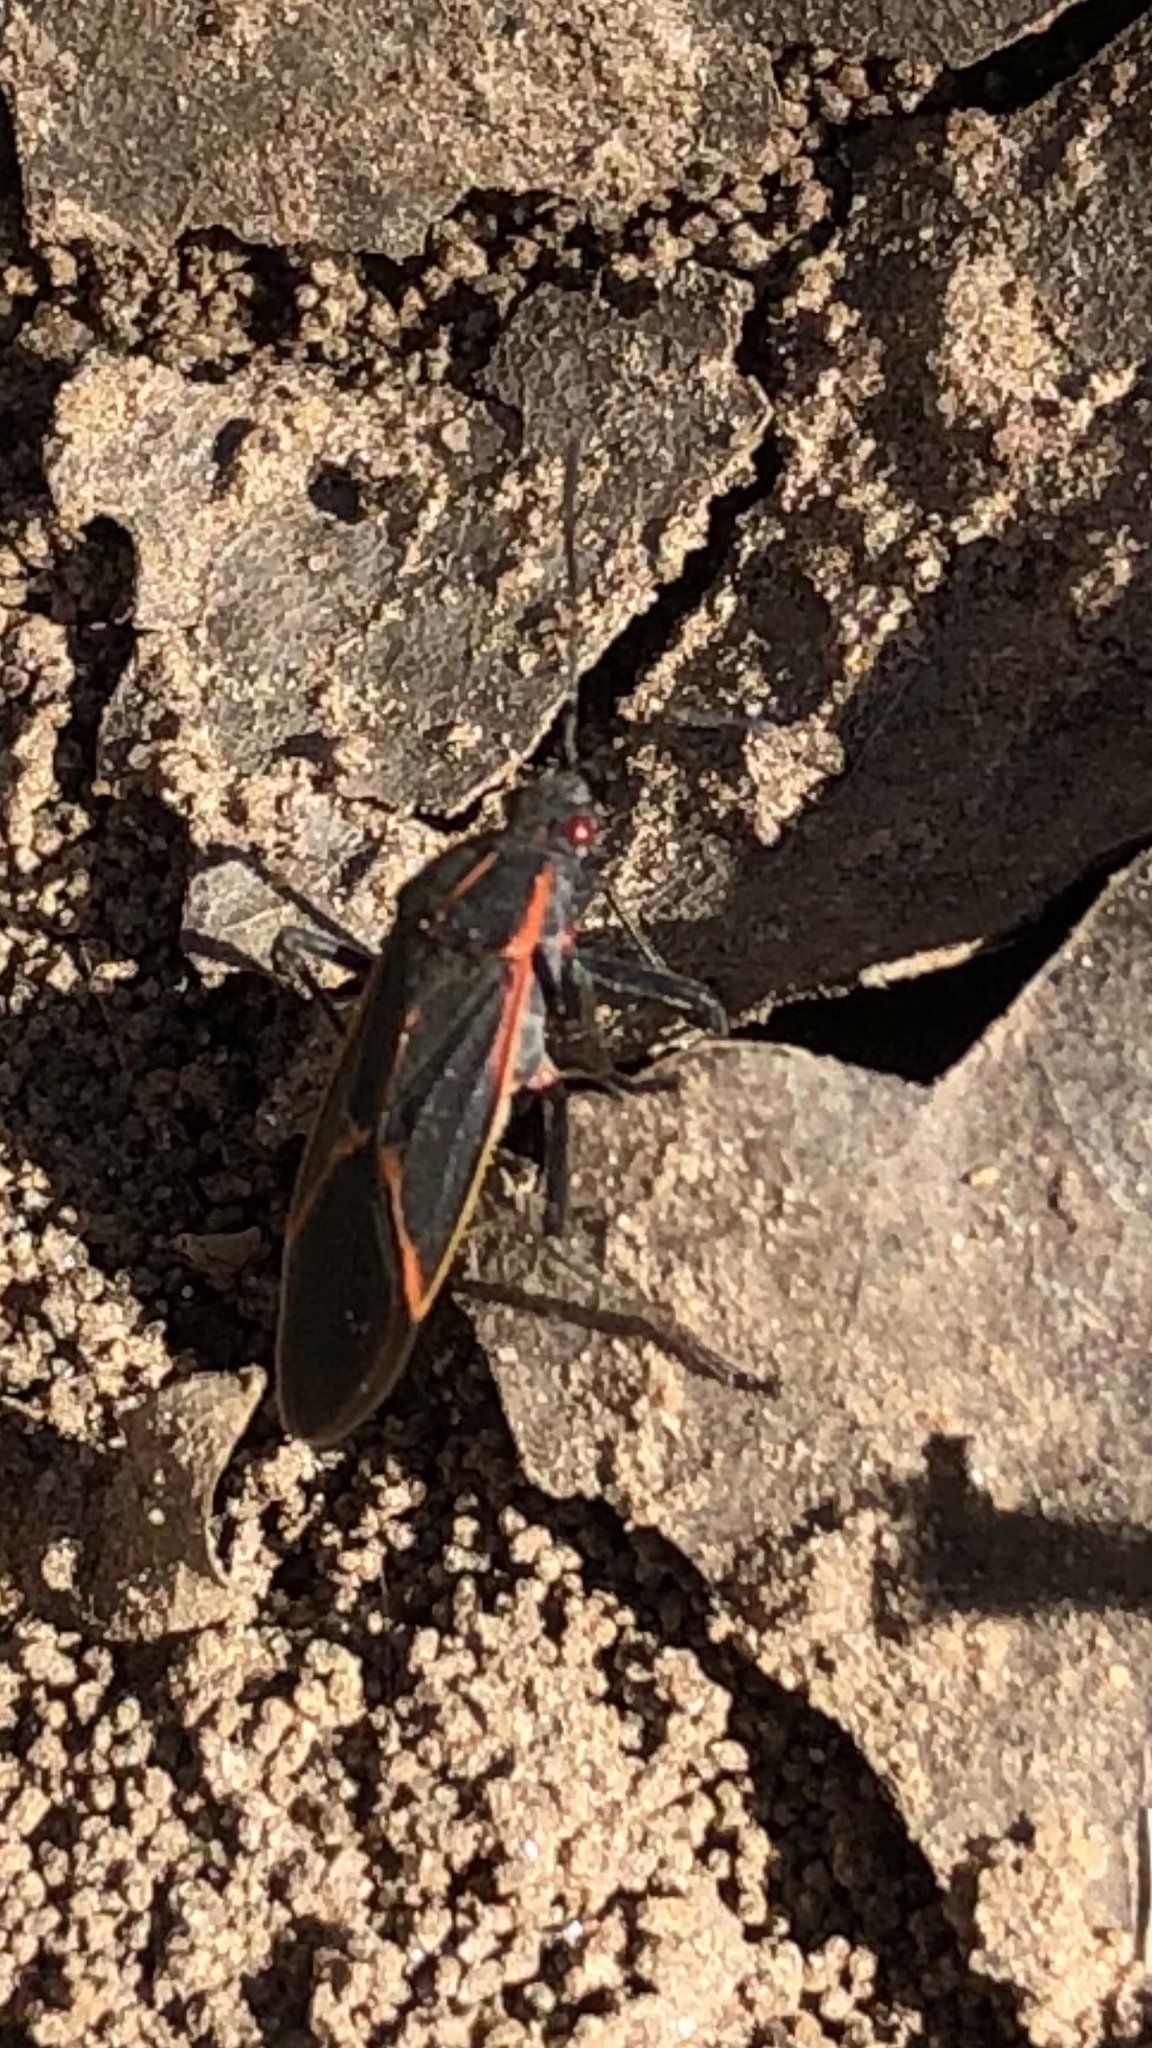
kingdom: Animalia
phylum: Arthropoda
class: Insecta
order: Hemiptera
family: Rhopalidae
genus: Boisea
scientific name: Boisea trivittata
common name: Boxelder bug
